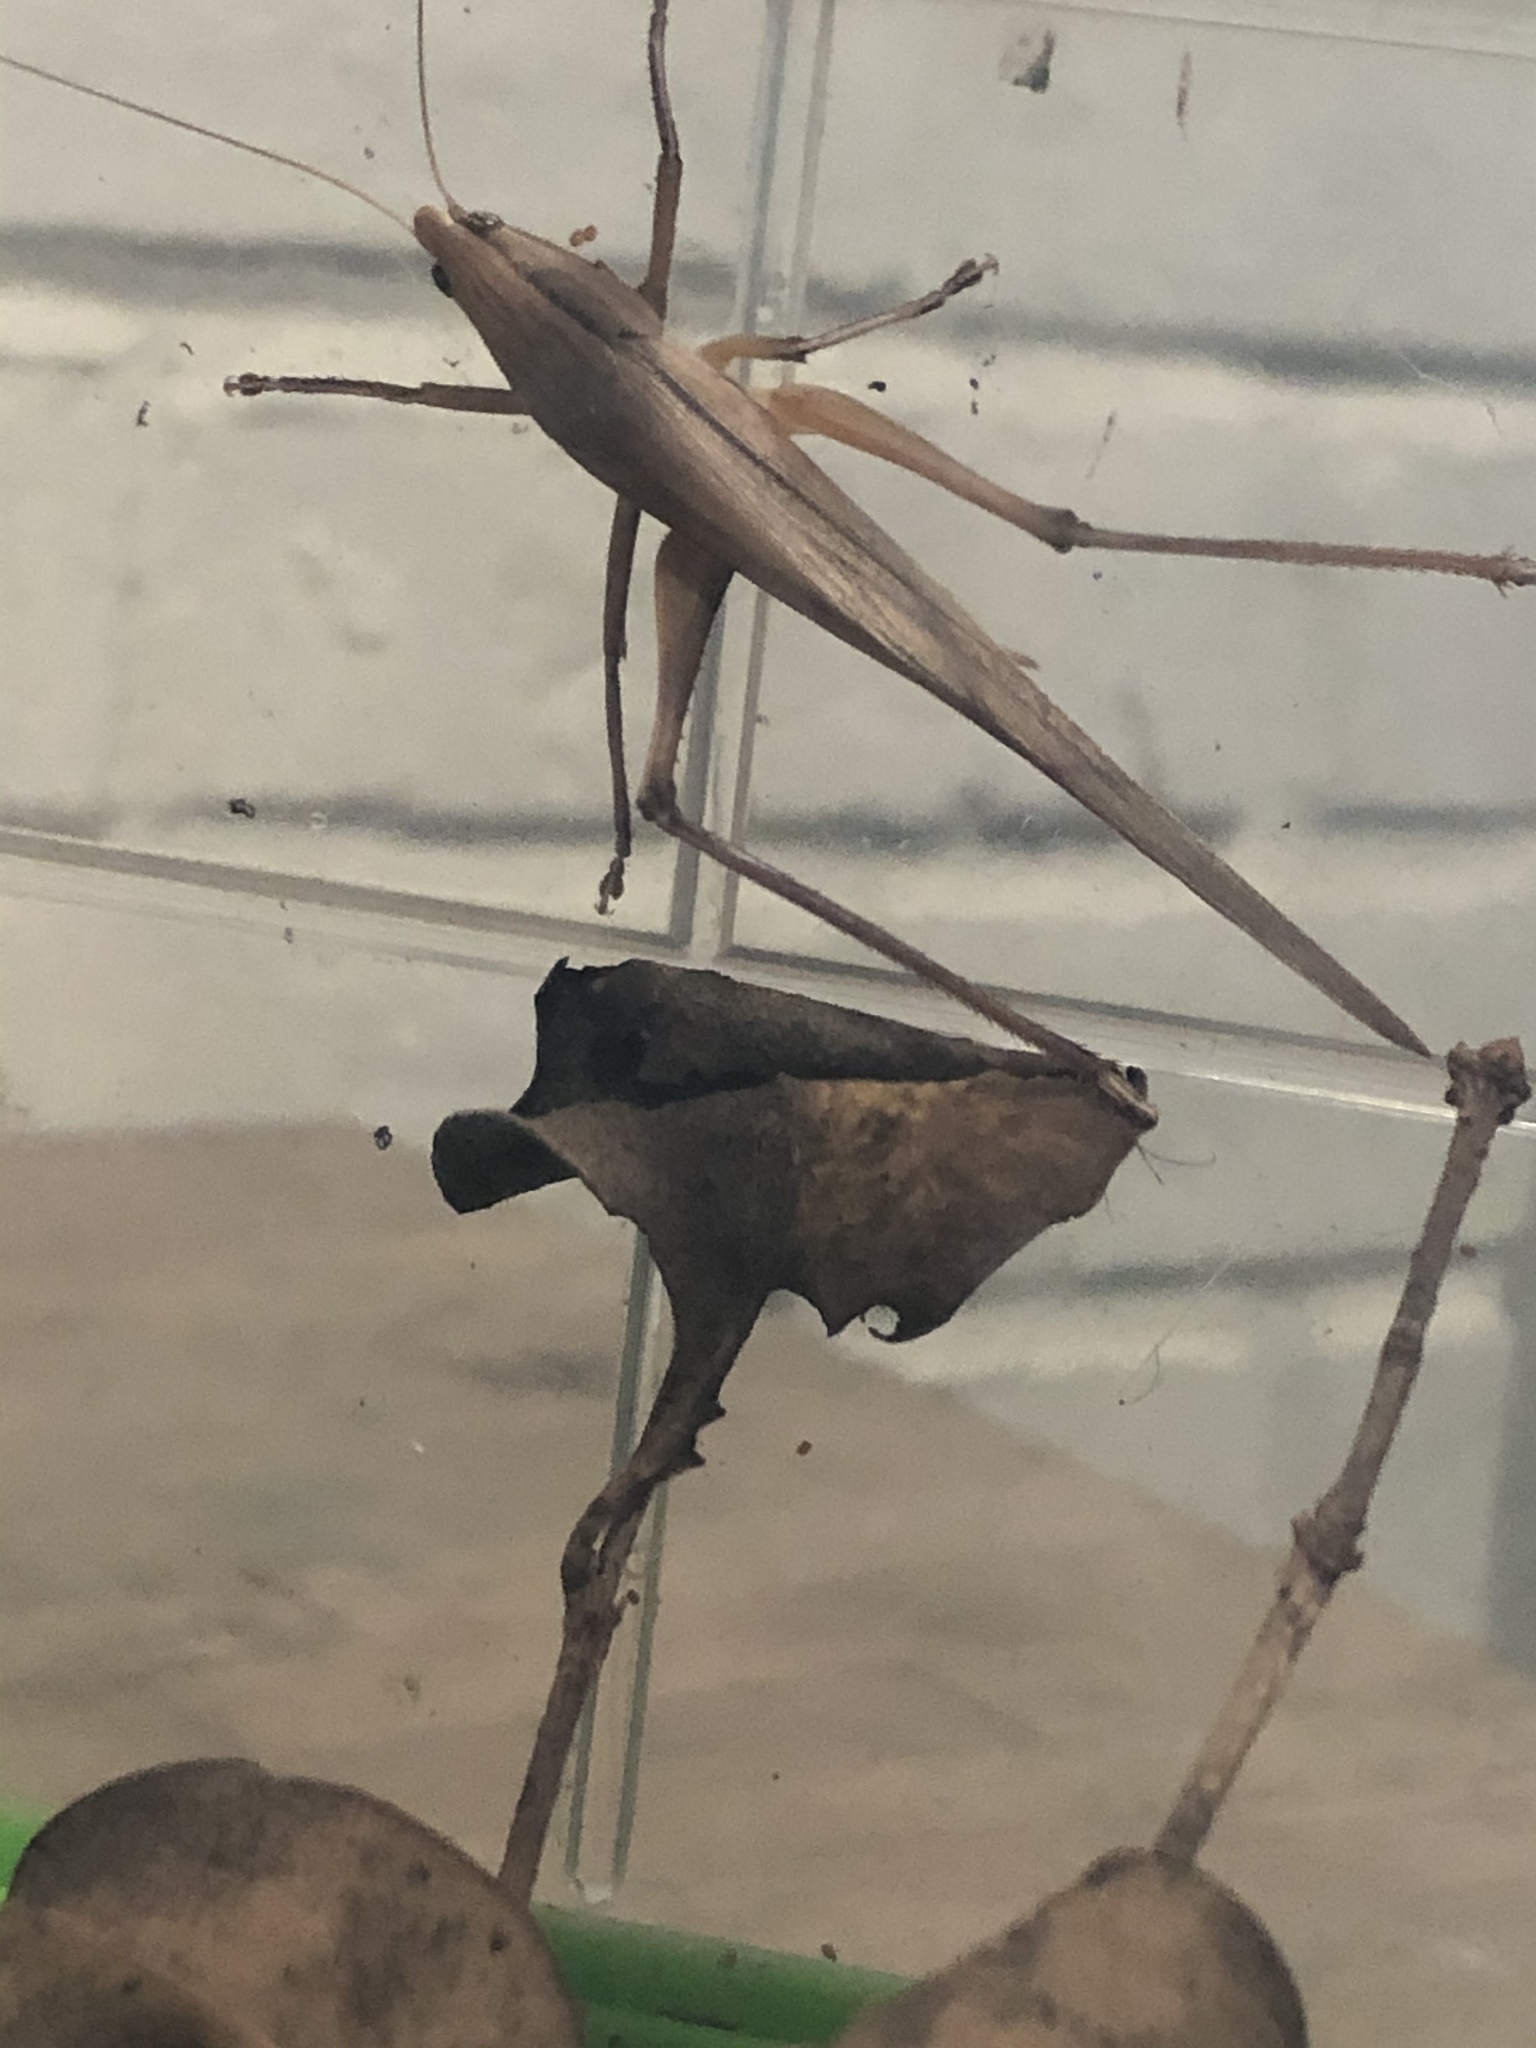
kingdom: Animalia
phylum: Arthropoda
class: Insecta
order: Orthoptera
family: Tettigoniidae
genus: Neoconocephalus
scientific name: Neoconocephalus triops
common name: Broad-tipped conehead
